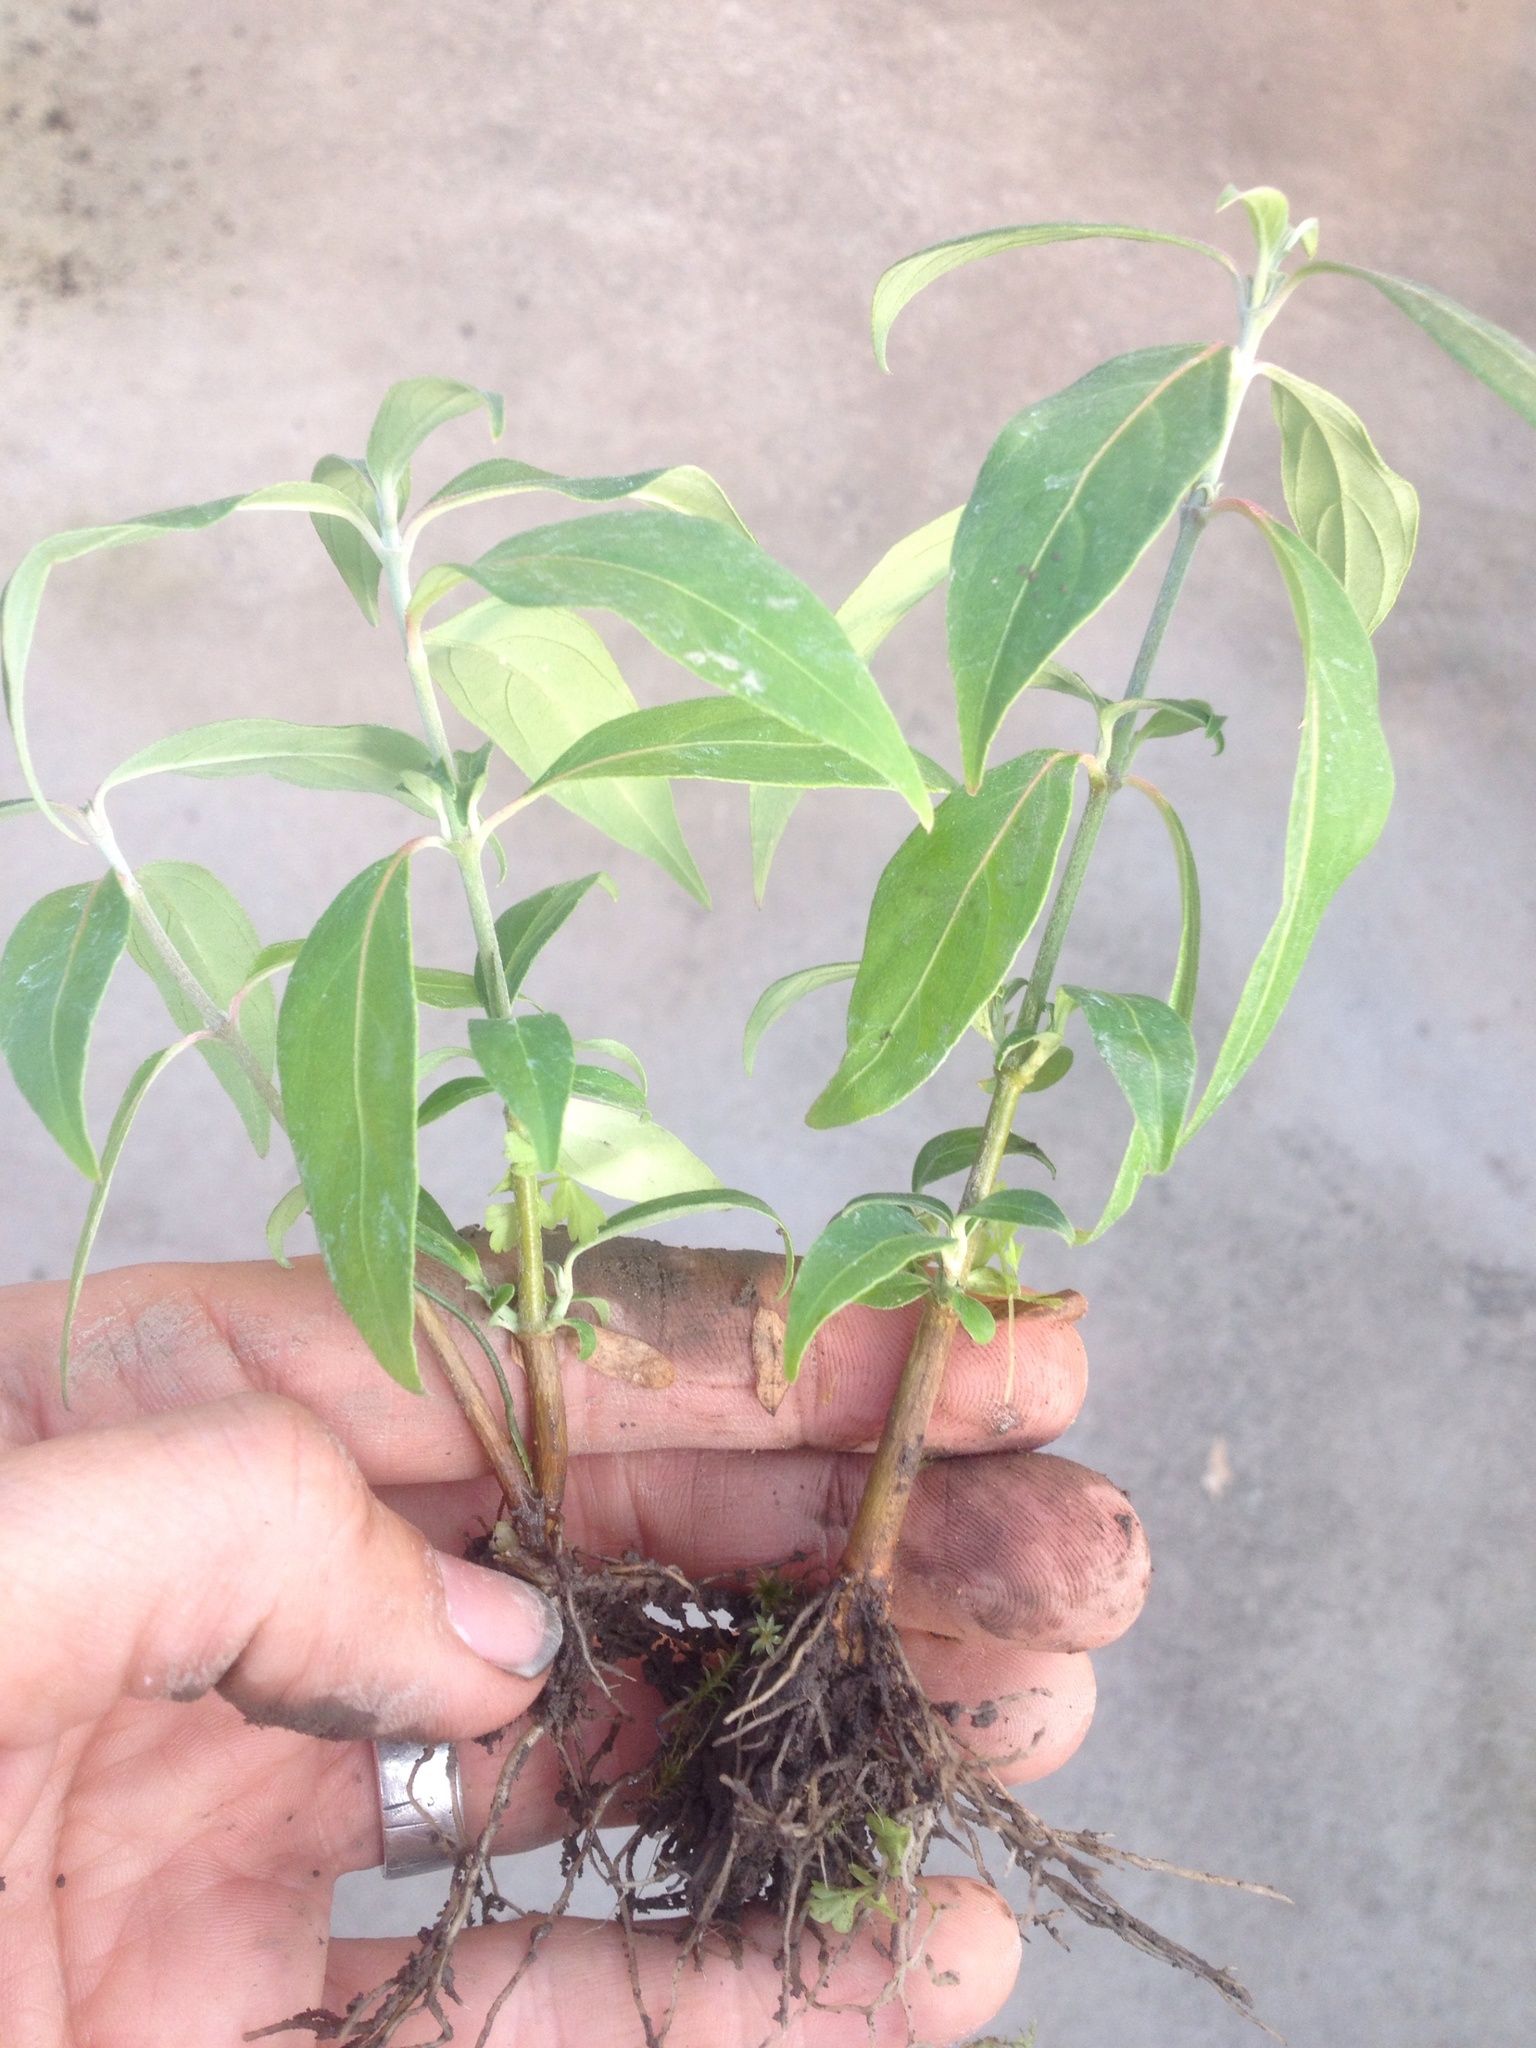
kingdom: Plantae
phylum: Tracheophyta
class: Magnoliopsida
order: Cornales
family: Cornaceae
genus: Cornus
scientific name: Cornus capitata
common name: Bentham's cornel
